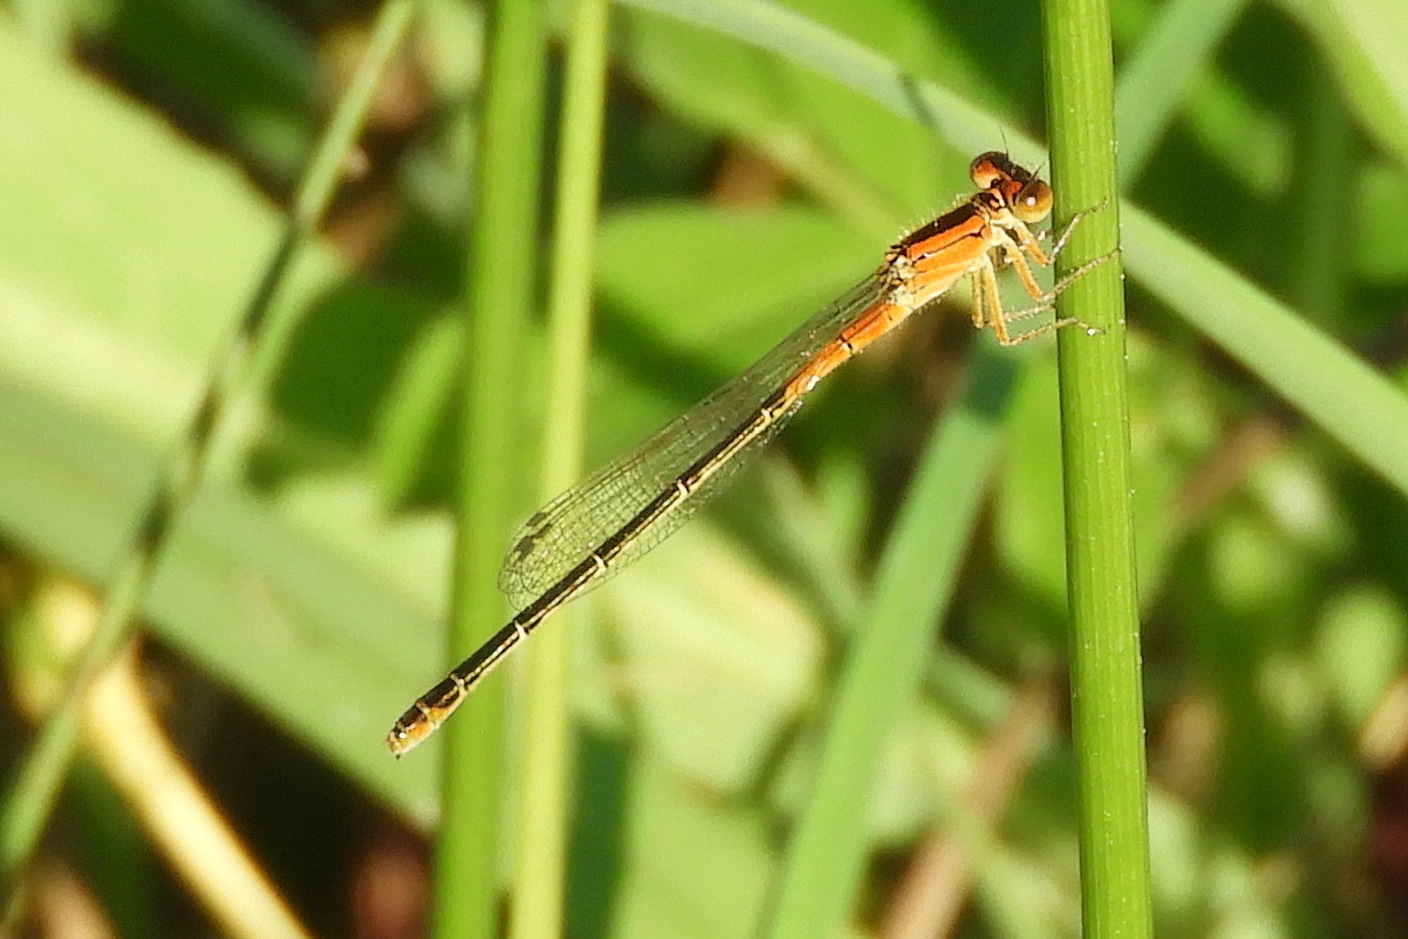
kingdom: Animalia
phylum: Arthropoda
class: Insecta
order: Odonata
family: Coenagrionidae
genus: Ischnura
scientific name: Ischnura verticalis
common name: Eastern forktail
